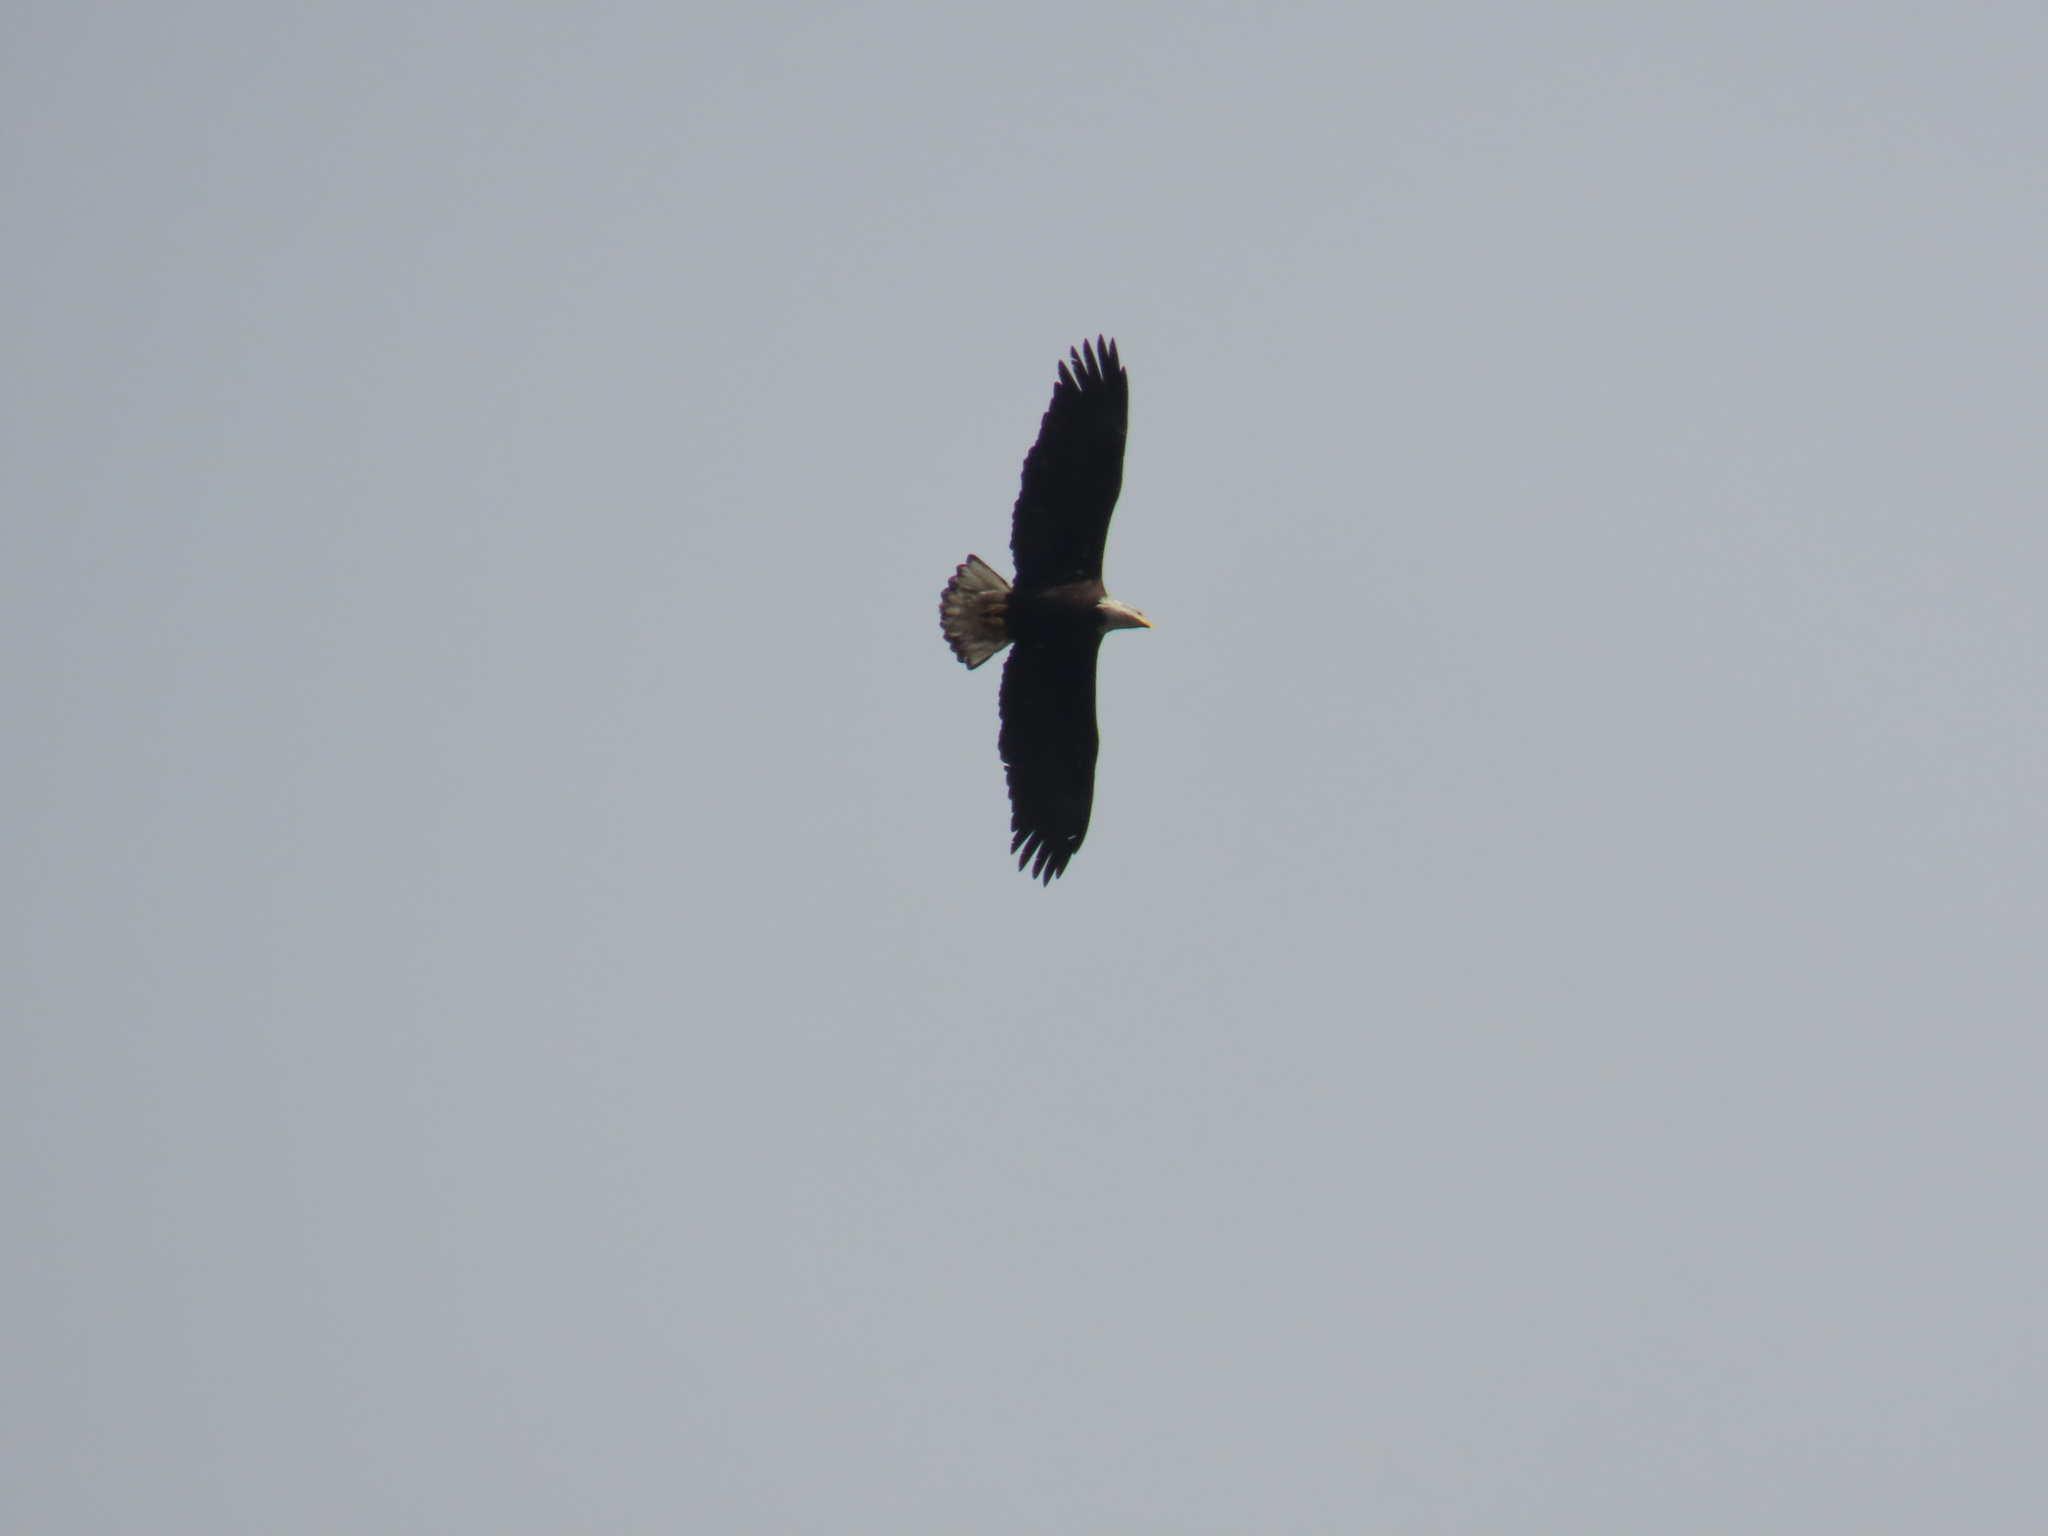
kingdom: Animalia
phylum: Chordata
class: Aves
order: Accipitriformes
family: Accipitridae
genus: Haliaeetus
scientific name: Haliaeetus leucocephalus
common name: Bald eagle
